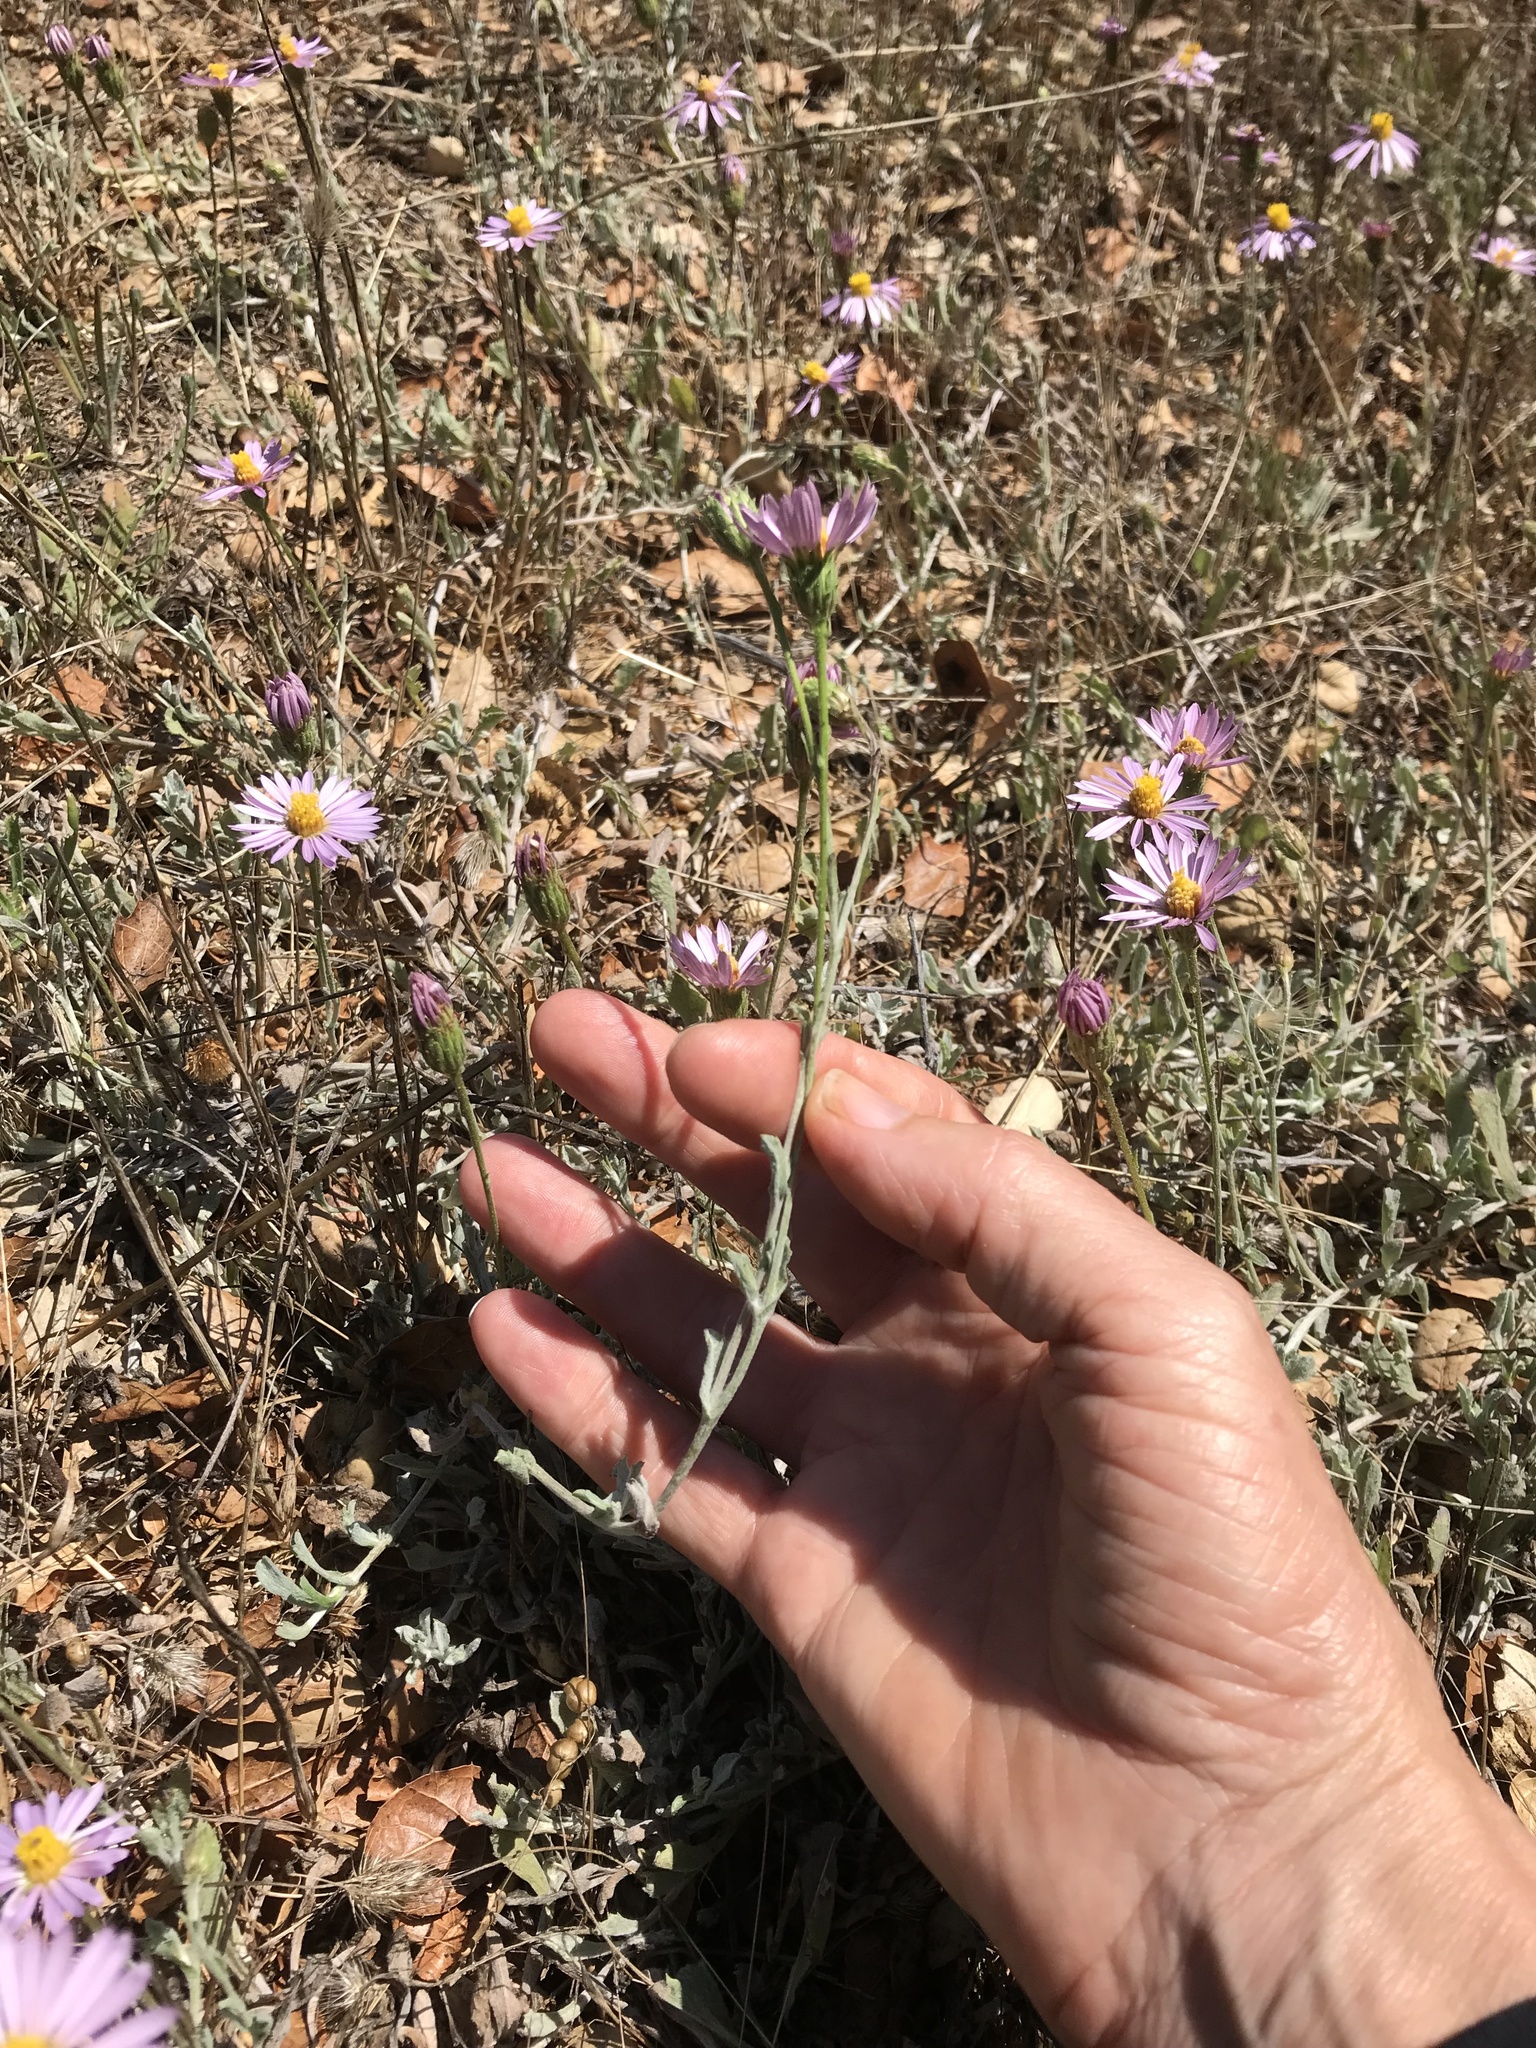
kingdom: Plantae
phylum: Tracheophyta
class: Magnoliopsida
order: Asterales
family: Asteraceae
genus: Corethrogyne
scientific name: Corethrogyne filaginifolia
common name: Sand-aster
